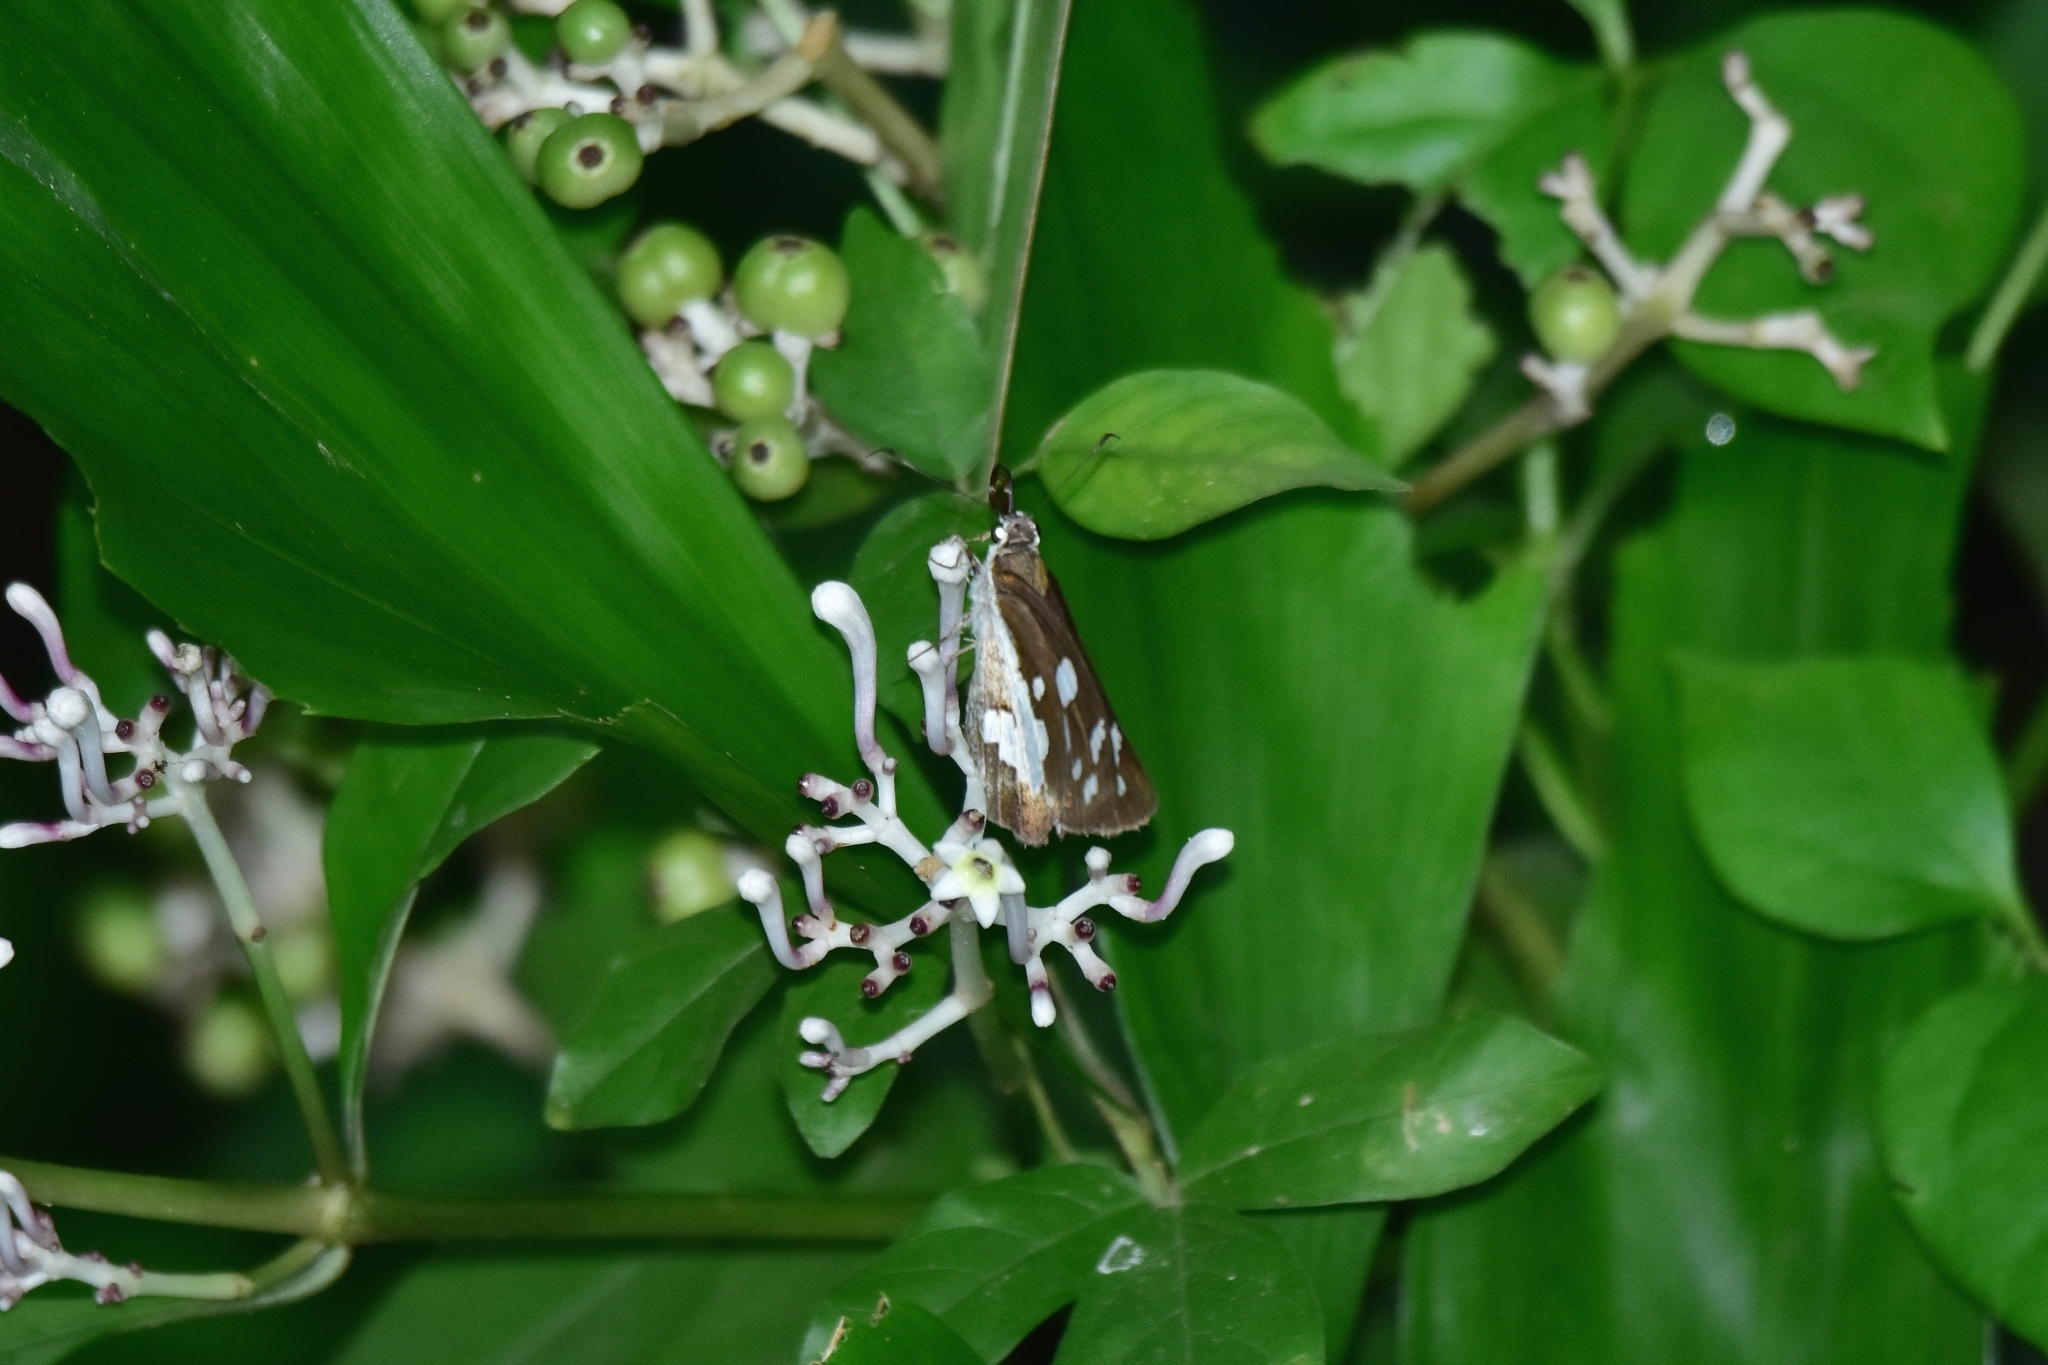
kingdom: Animalia
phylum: Arthropoda
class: Insecta
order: Lepidoptera
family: Hesperiidae
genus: Udaspes
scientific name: Udaspes folus
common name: Grass demon
